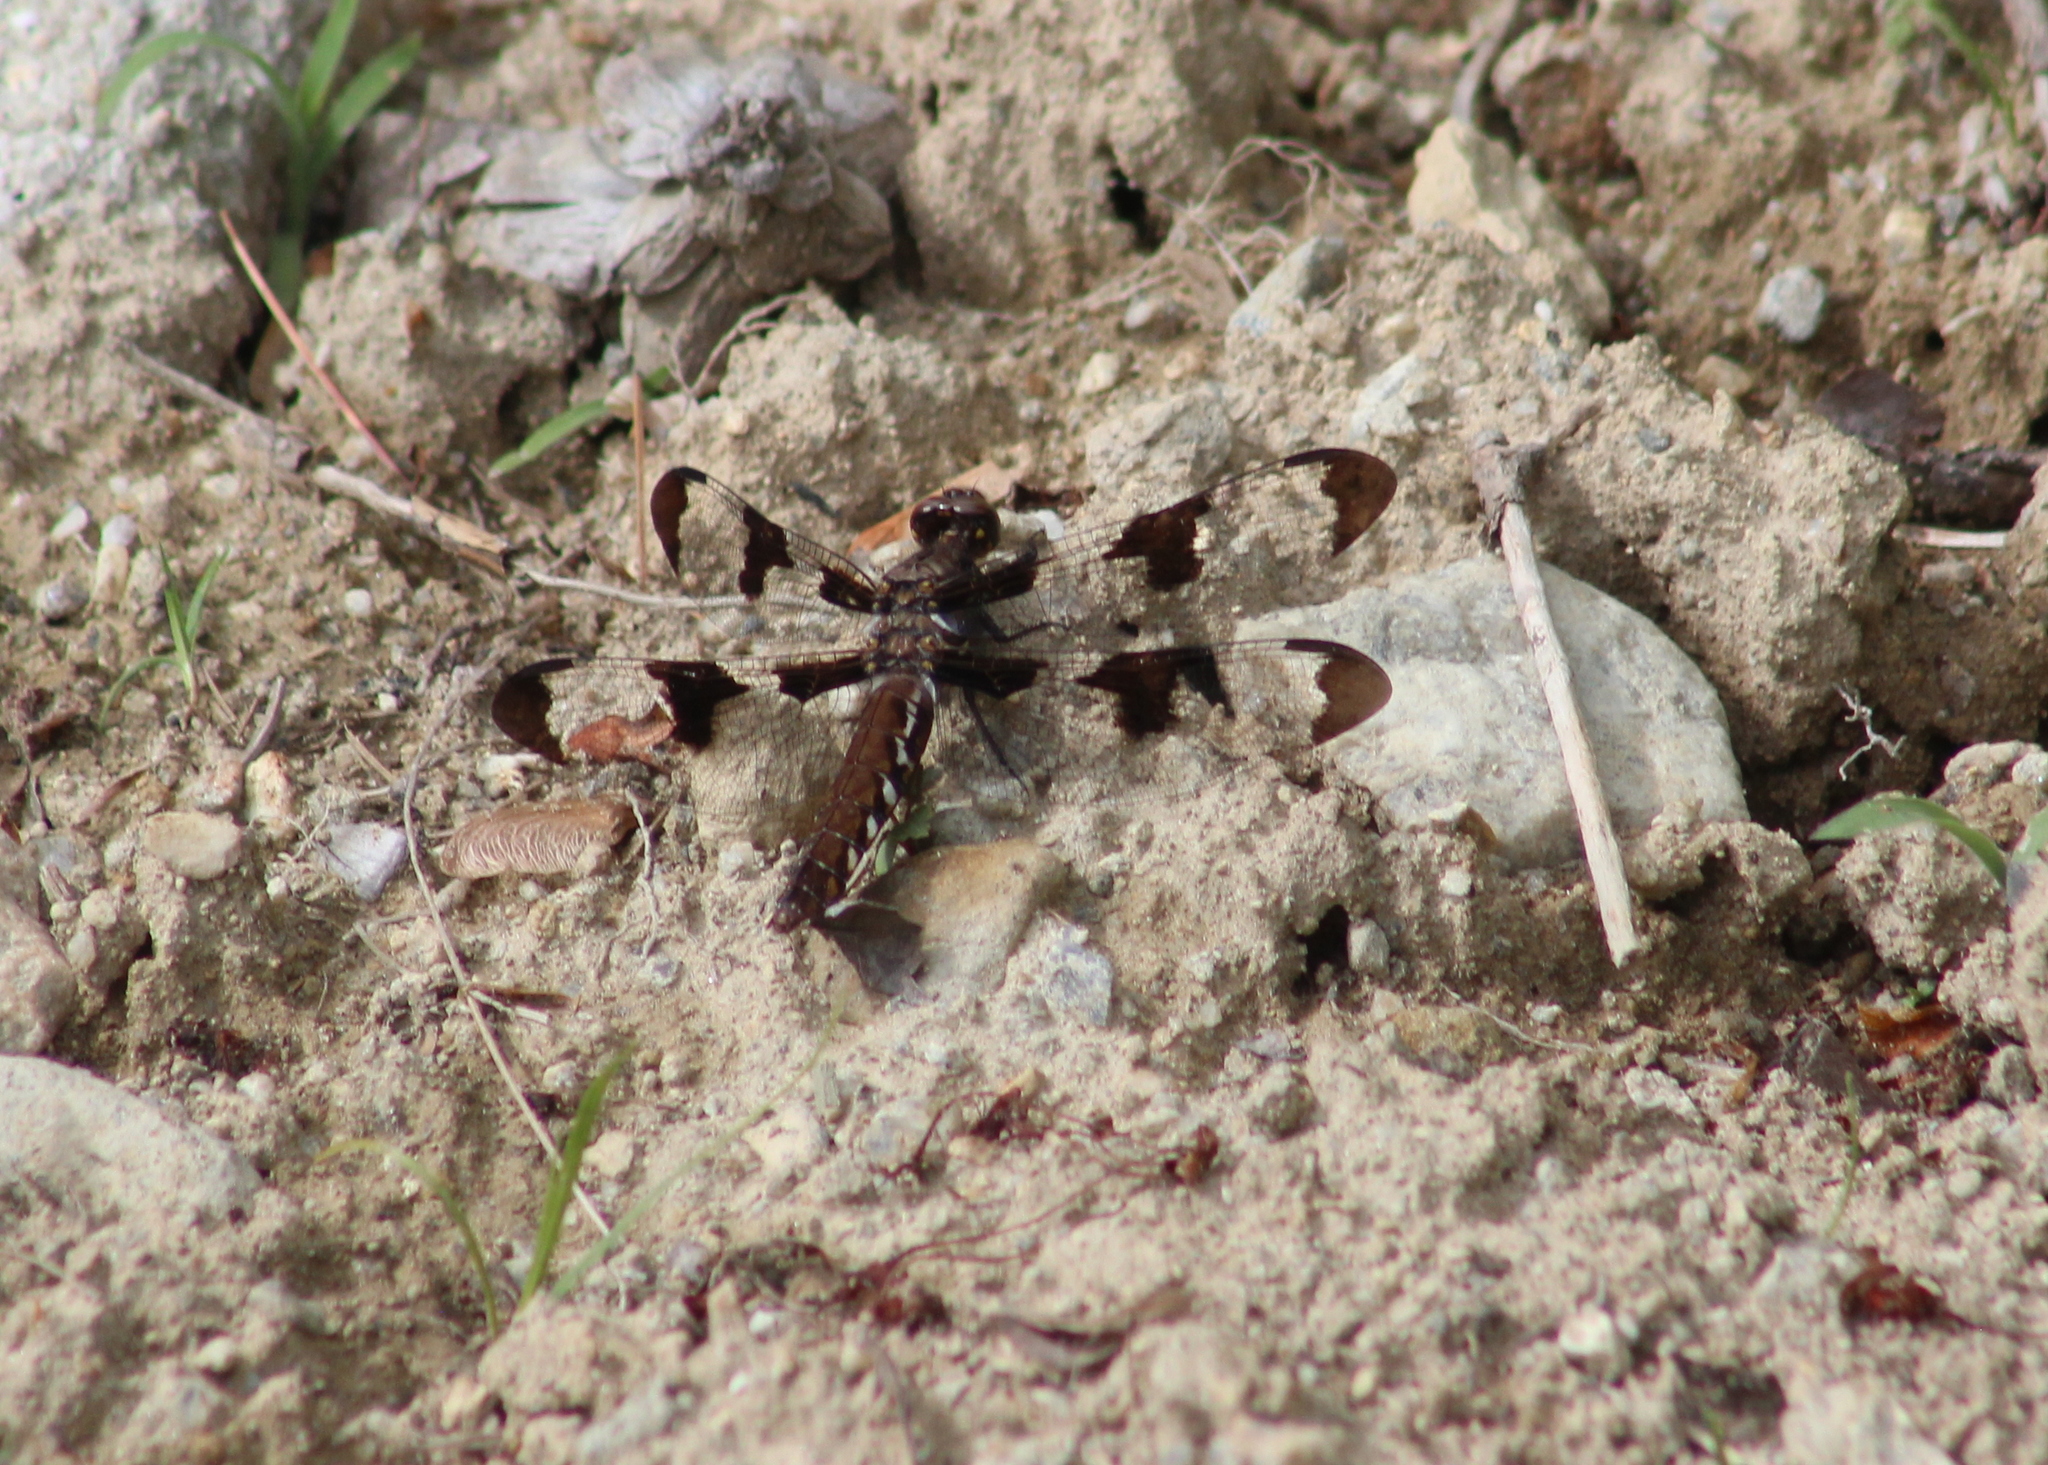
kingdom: Animalia
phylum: Arthropoda
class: Insecta
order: Odonata
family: Libellulidae
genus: Plathemis
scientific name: Plathemis lydia
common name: Common whitetail
